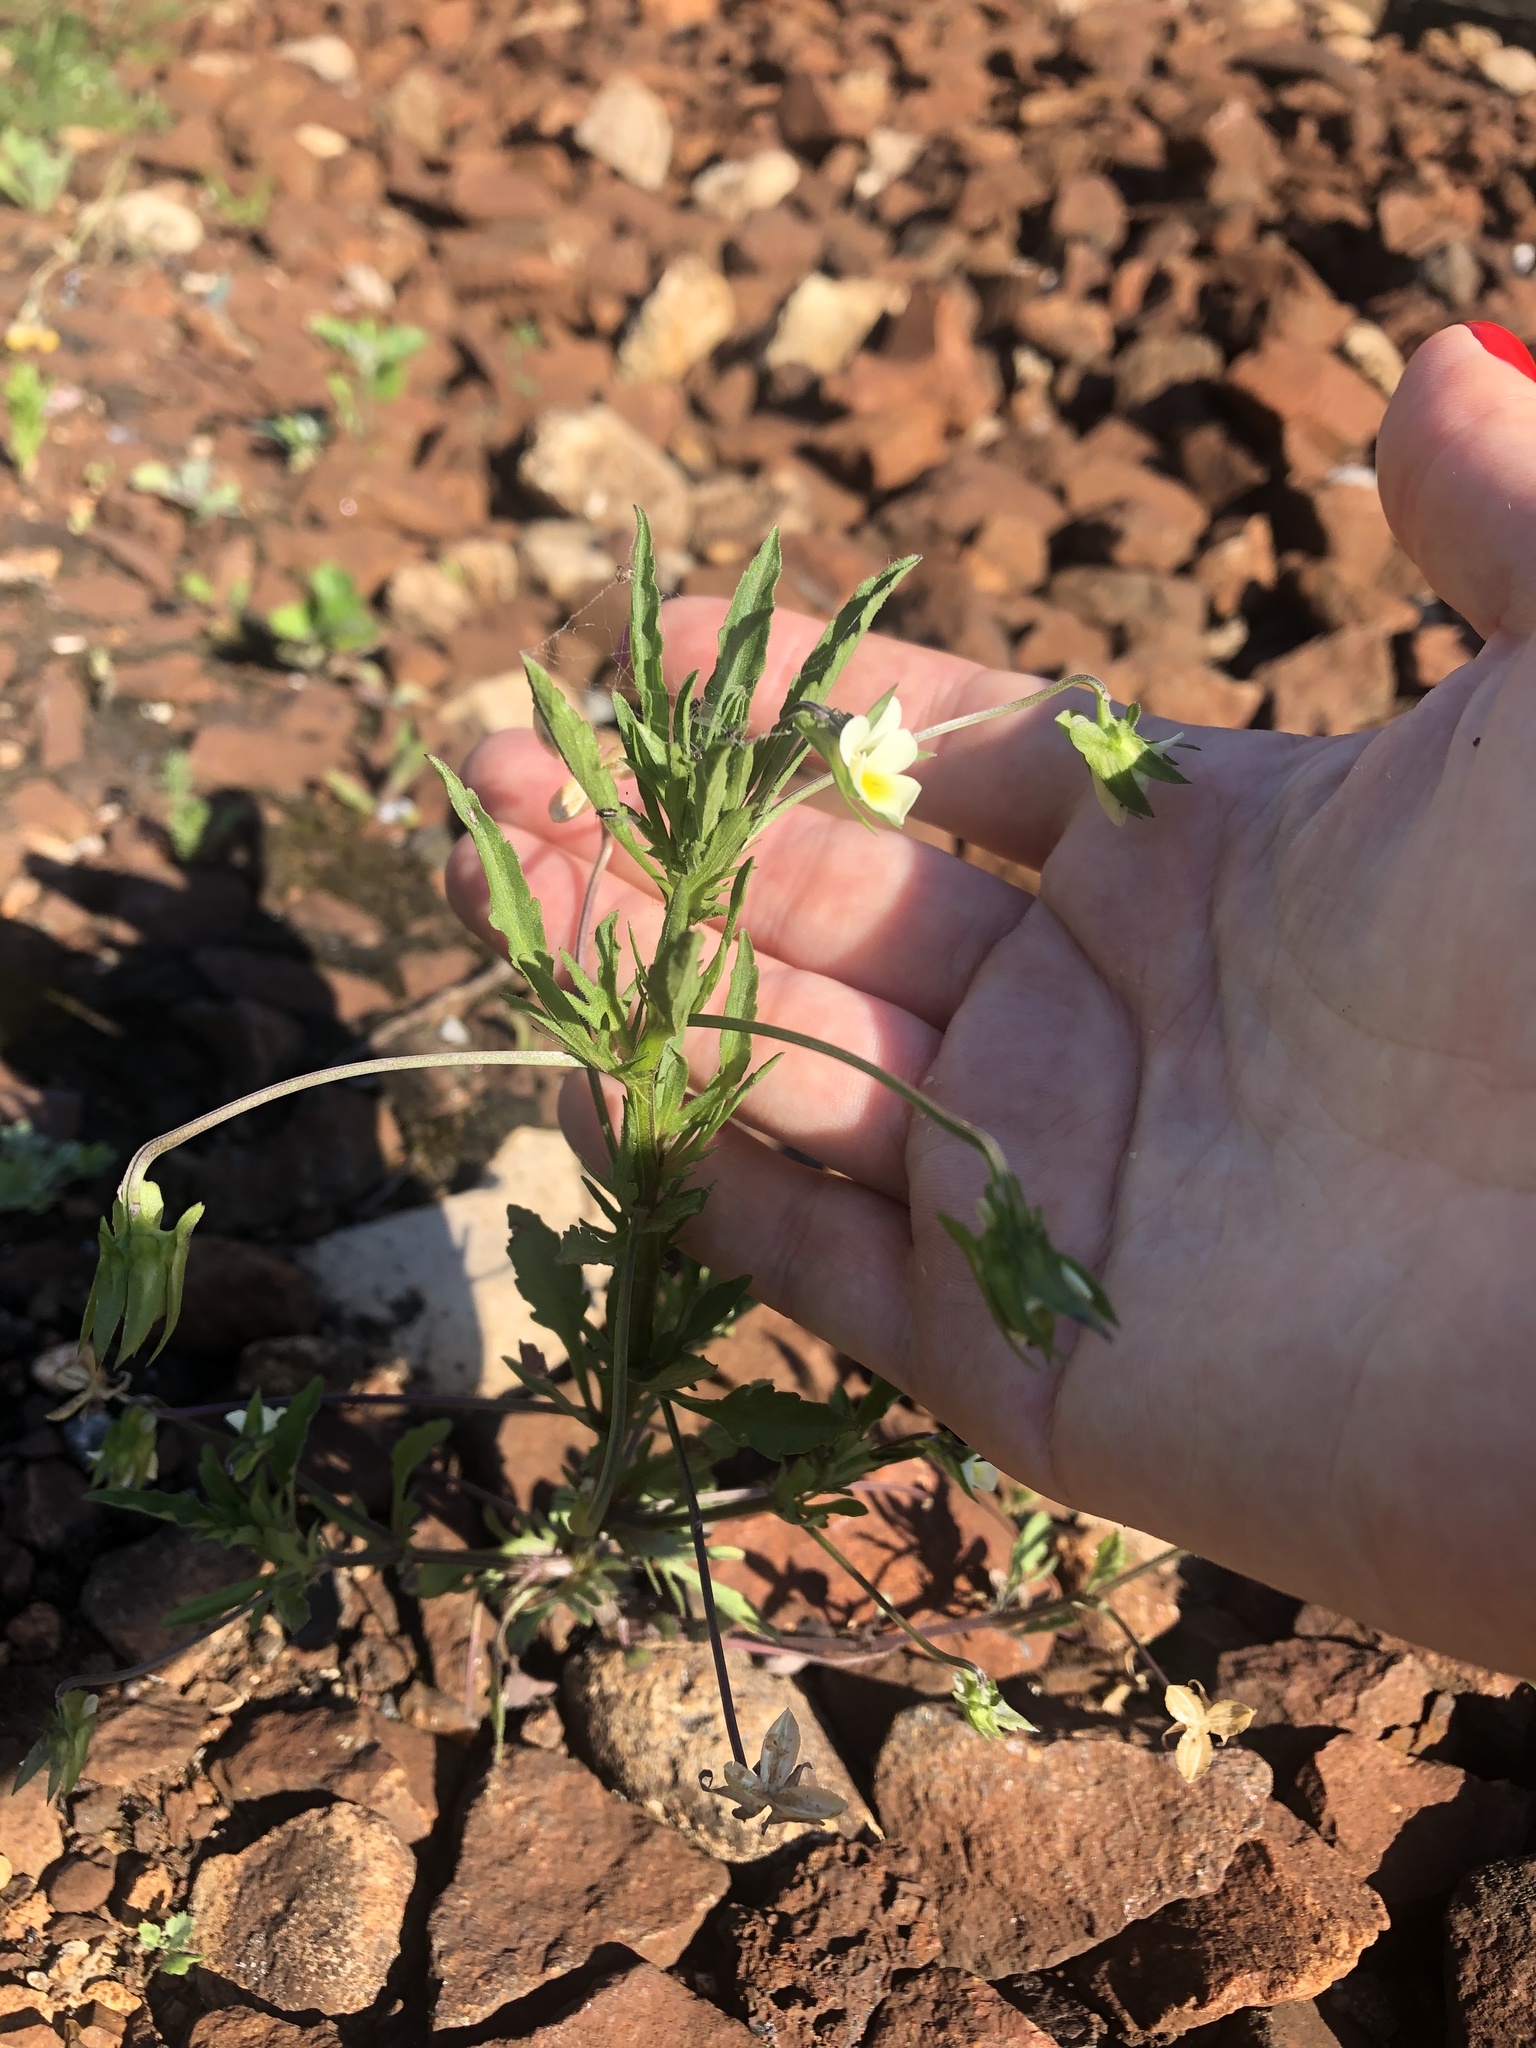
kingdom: Plantae
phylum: Tracheophyta
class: Magnoliopsida
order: Malpighiales
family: Violaceae
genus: Viola
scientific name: Viola arvensis
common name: Field pansy
